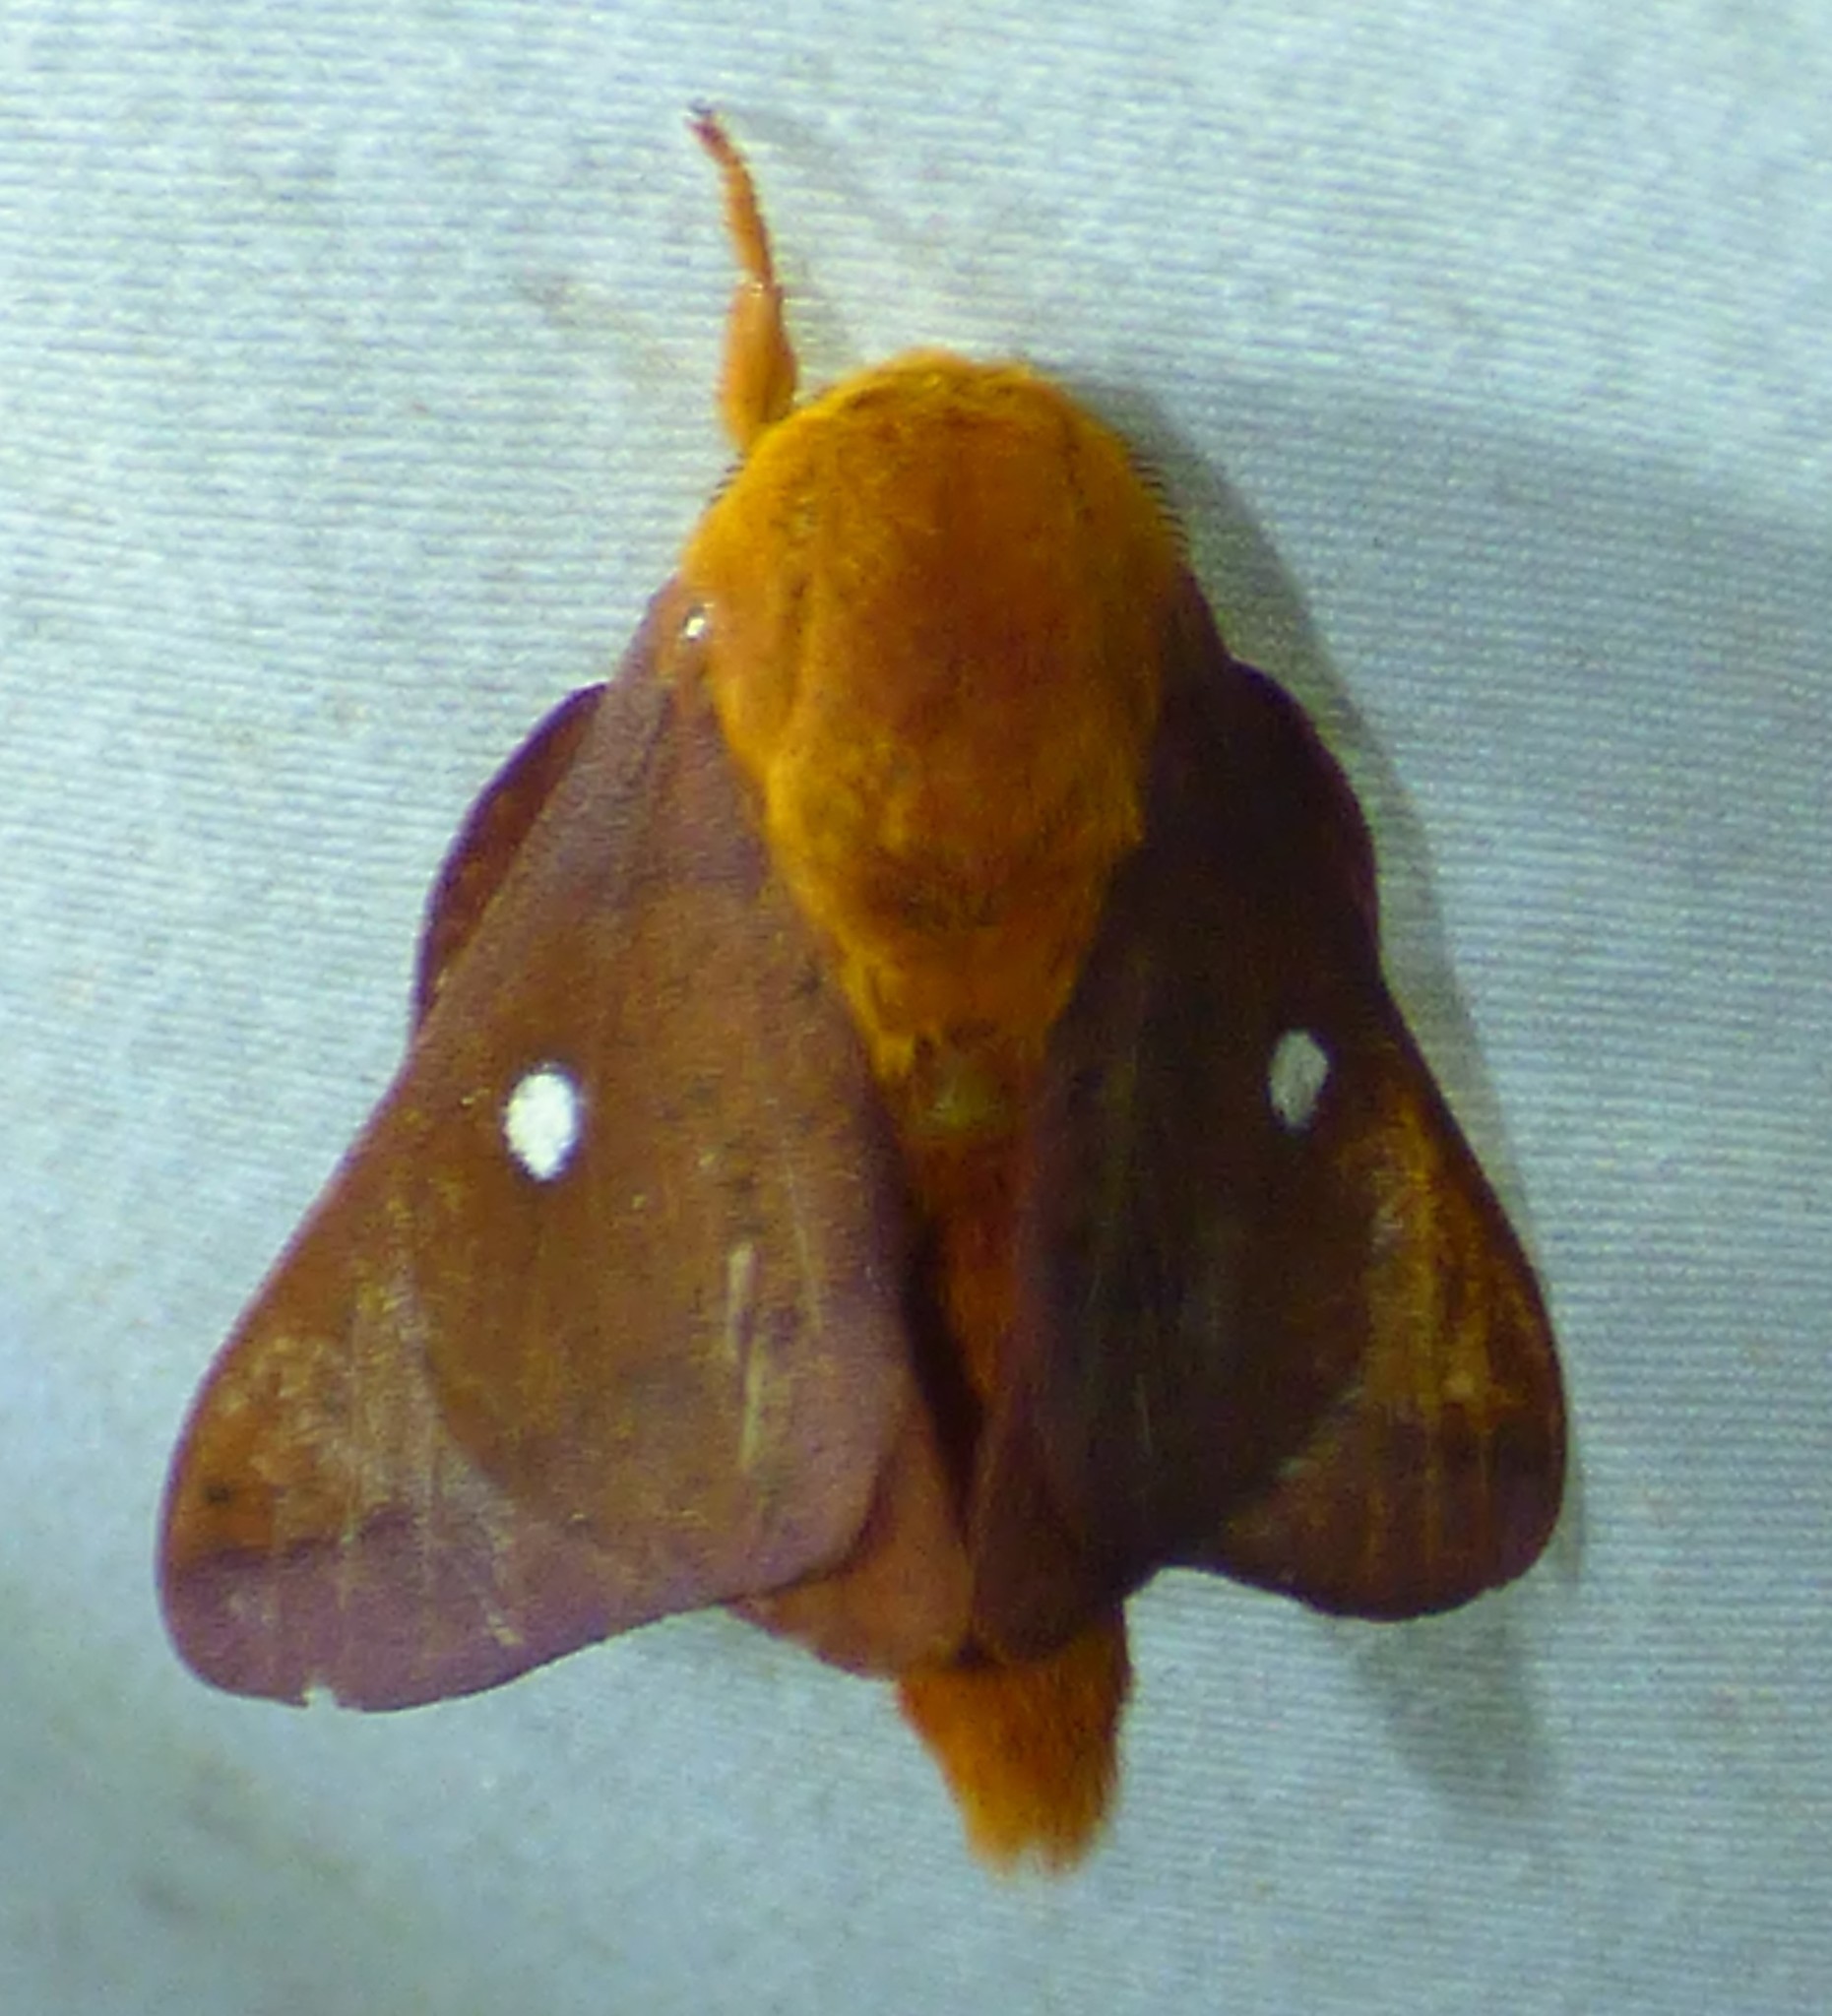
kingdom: Animalia
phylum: Arthropoda
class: Insecta
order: Lepidoptera
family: Saturniidae
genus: Anisota
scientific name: Anisota peigleri
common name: Peigler's oakworm moth
